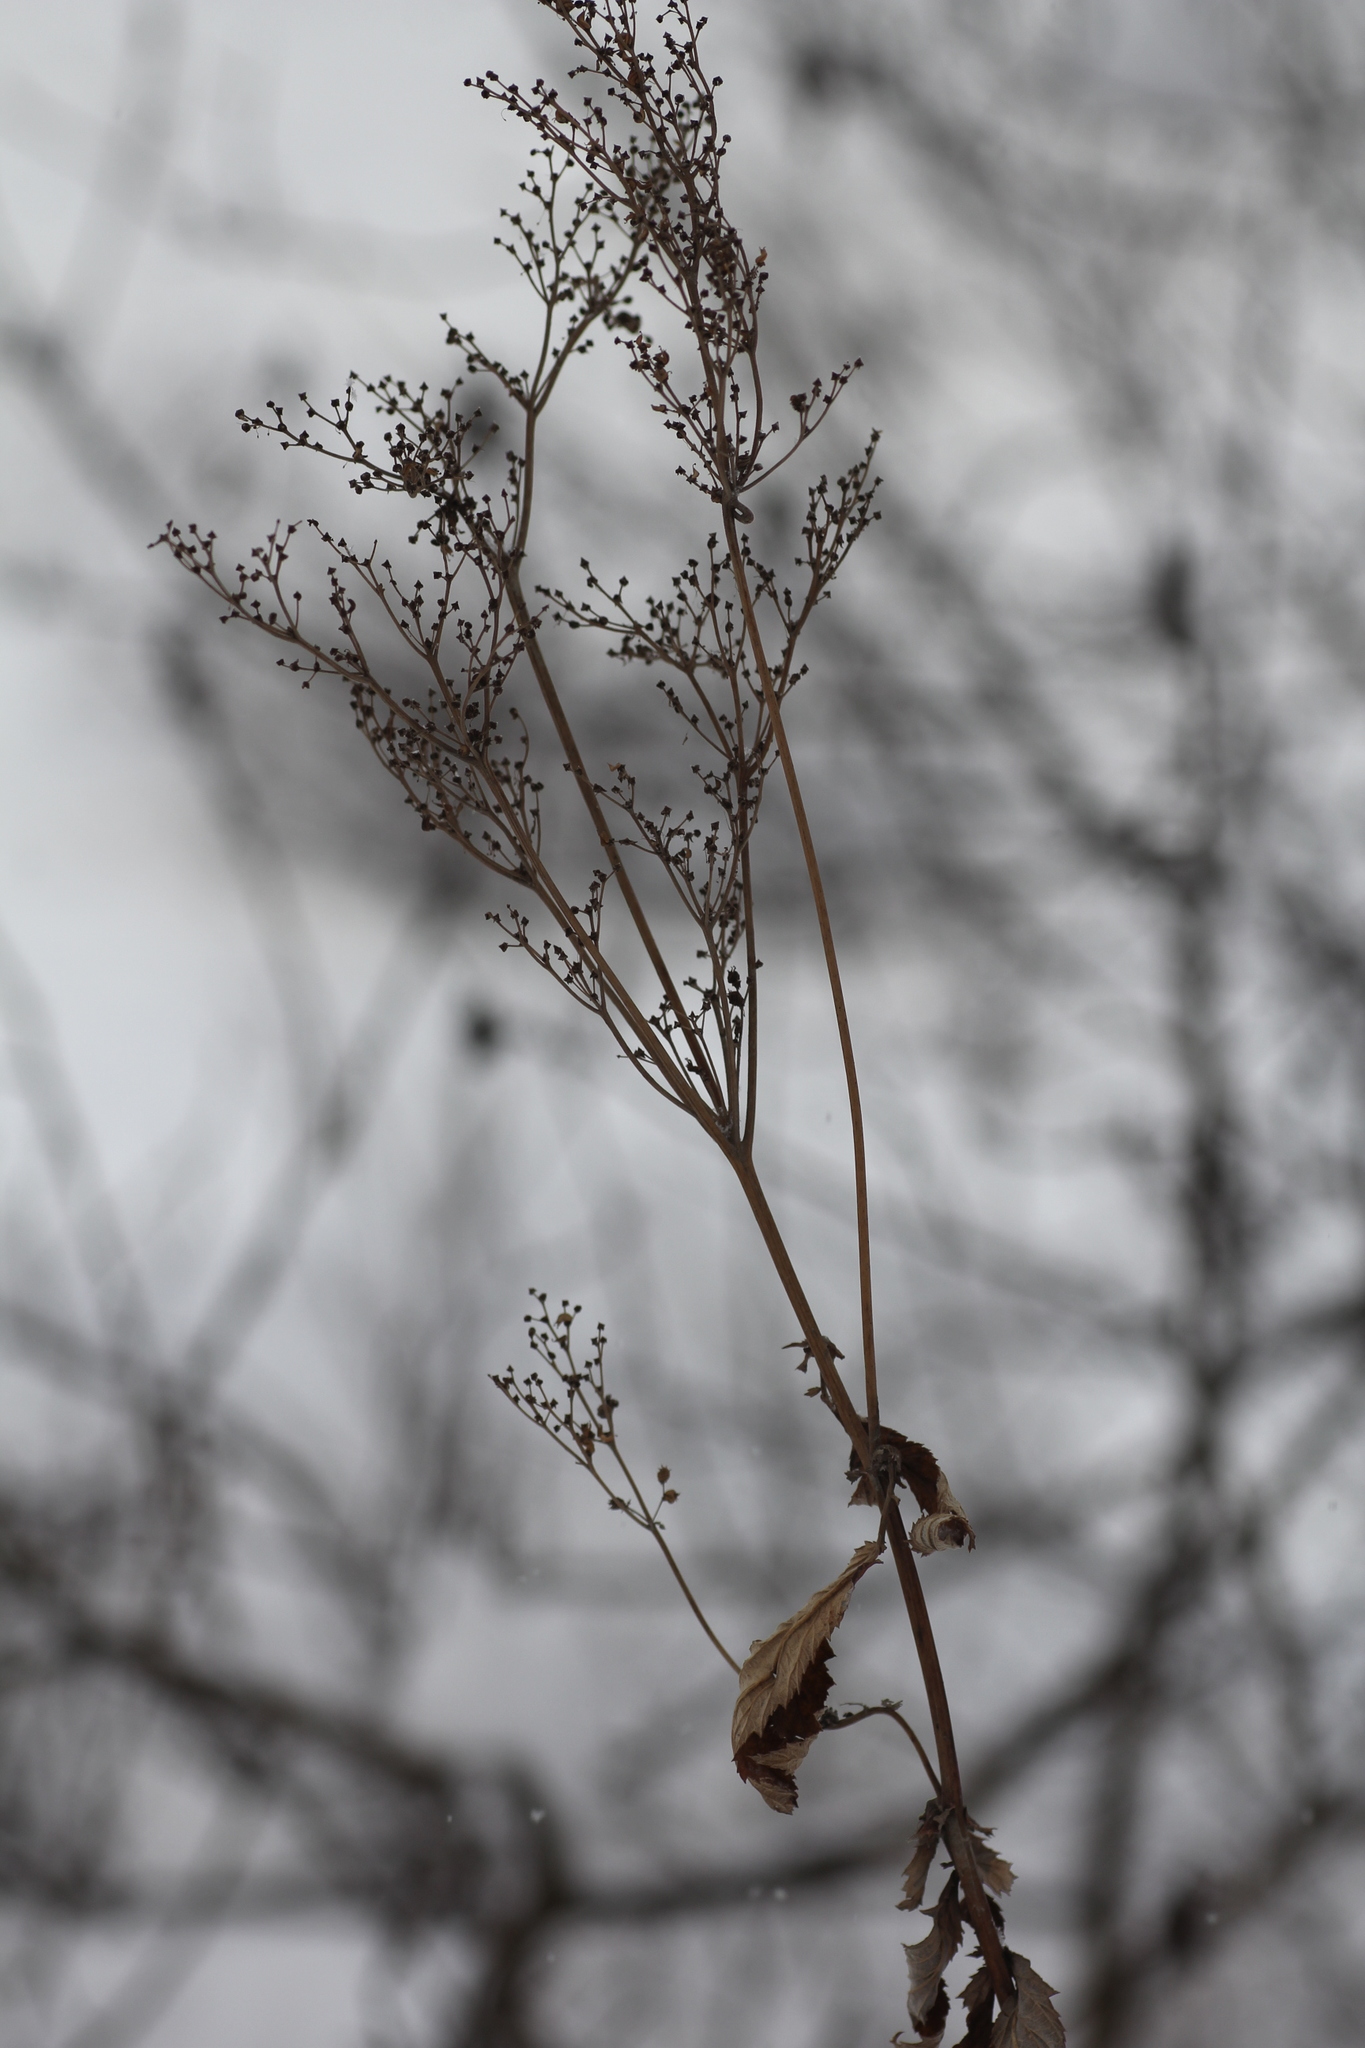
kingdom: Plantae
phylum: Tracheophyta
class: Magnoliopsida
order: Rosales
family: Rosaceae
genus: Filipendula
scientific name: Filipendula ulmaria
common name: Meadowsweet
